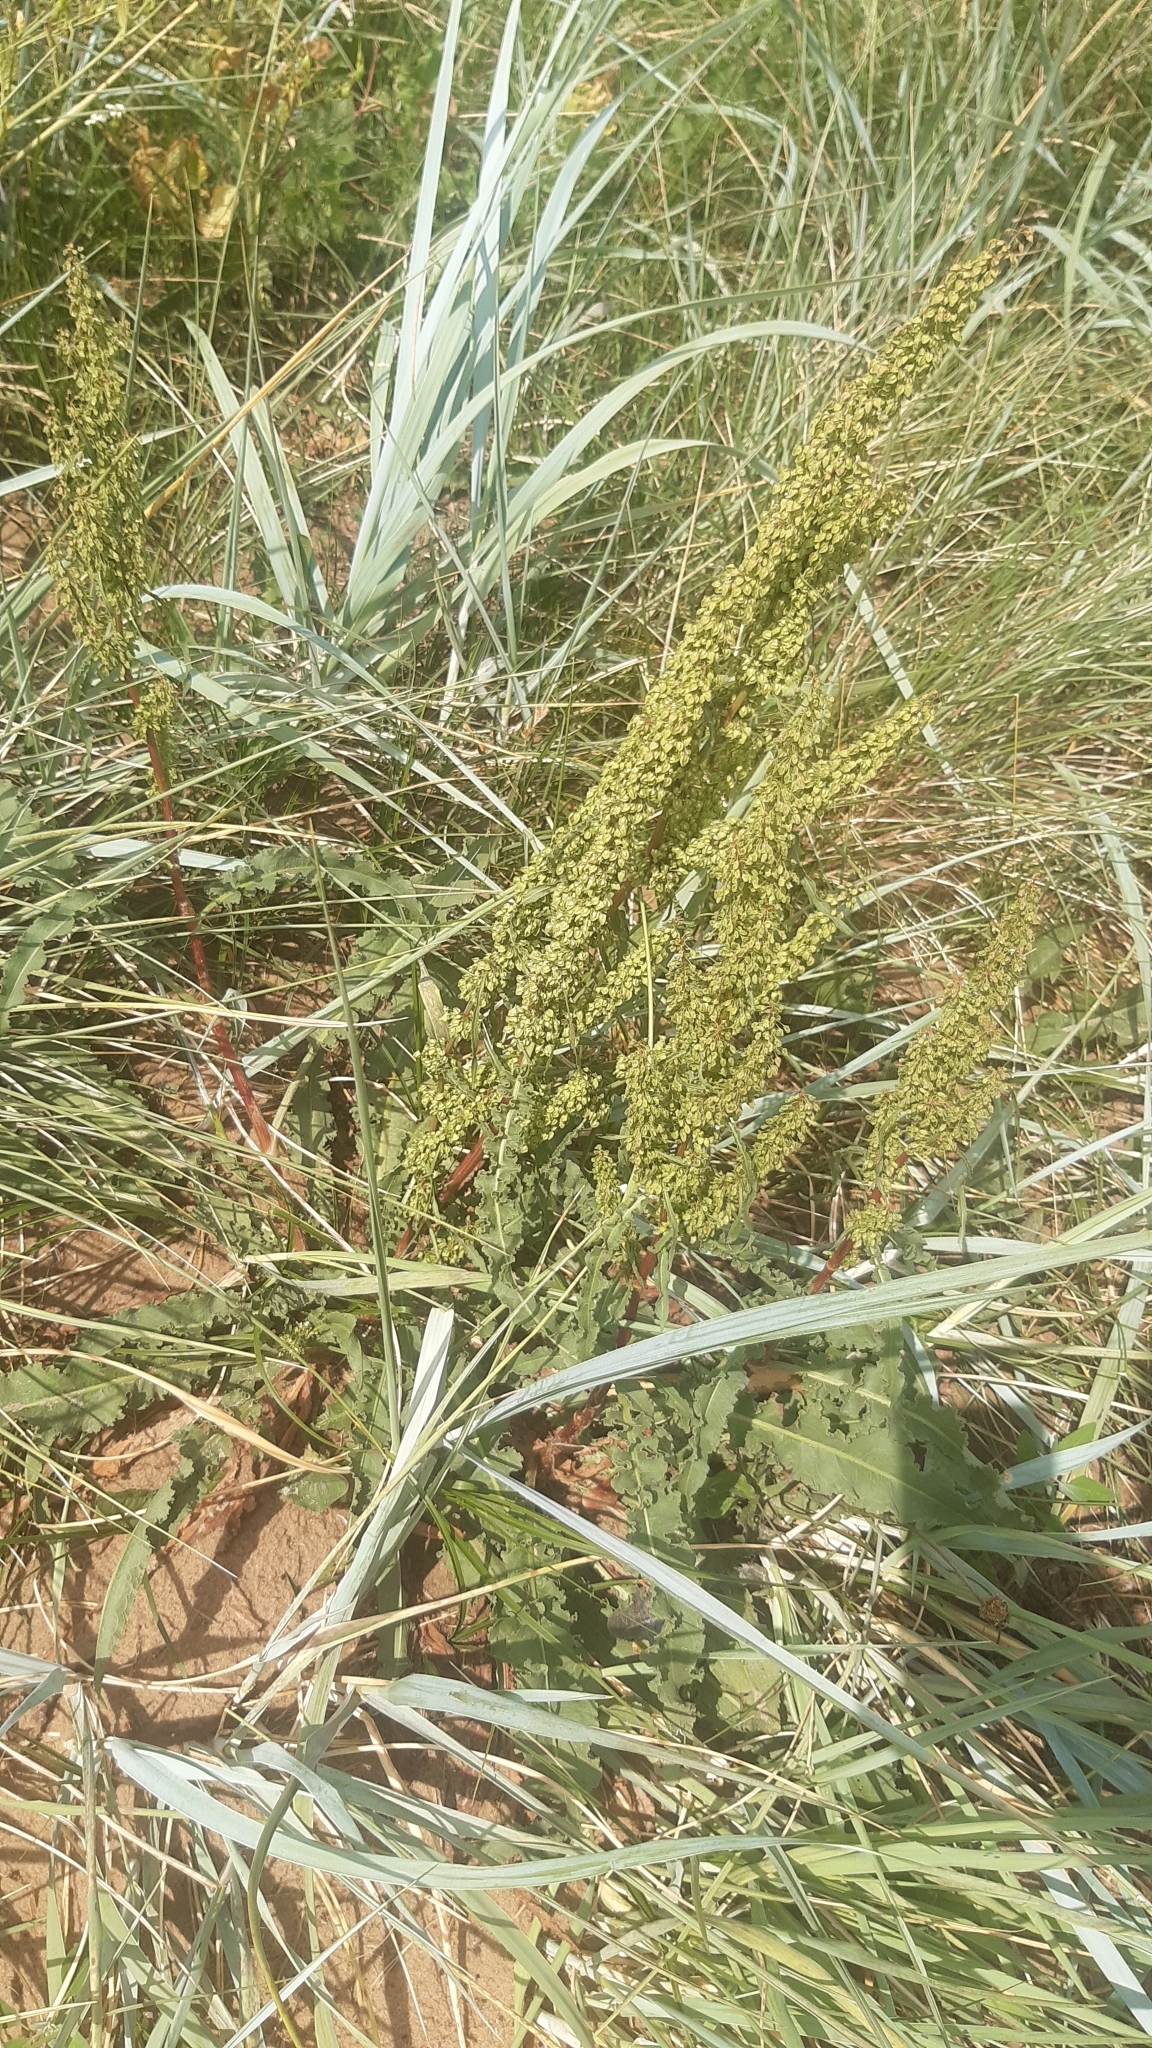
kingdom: Plantae
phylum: Tracheophyta
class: Magnoliopsida
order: Caryophyllales
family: Polygonaceae
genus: Rumex
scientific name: Rumex crispus
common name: Curled dock
